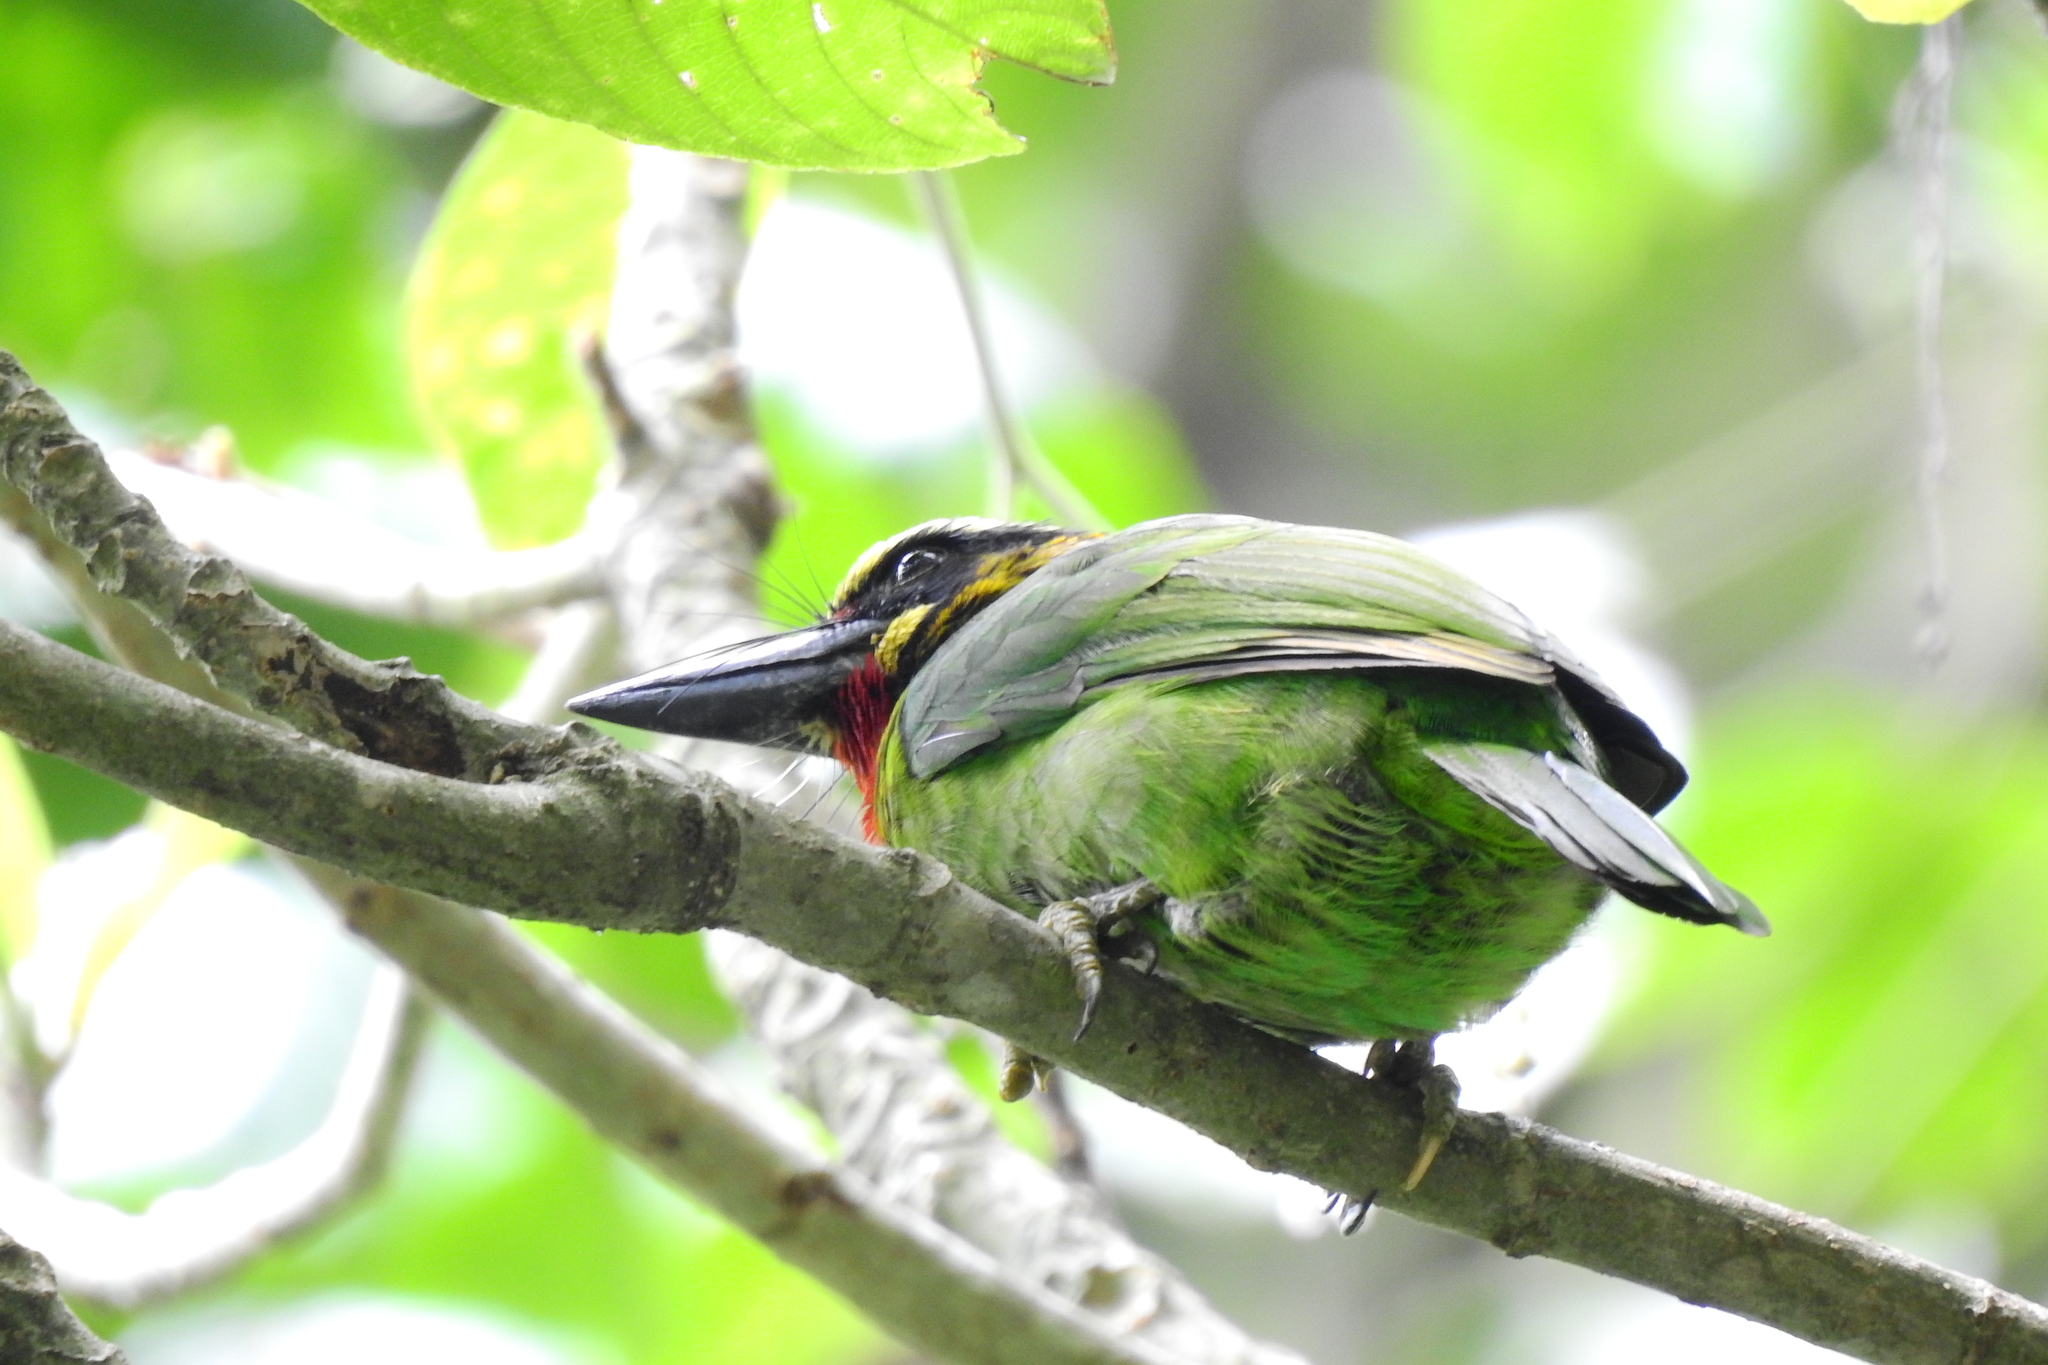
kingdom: Animalia
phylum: Chordata
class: Aves
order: Piciformes
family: Megalaimidae
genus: Psilopogon
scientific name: Psilopogon javensis
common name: Black-banded barbet
